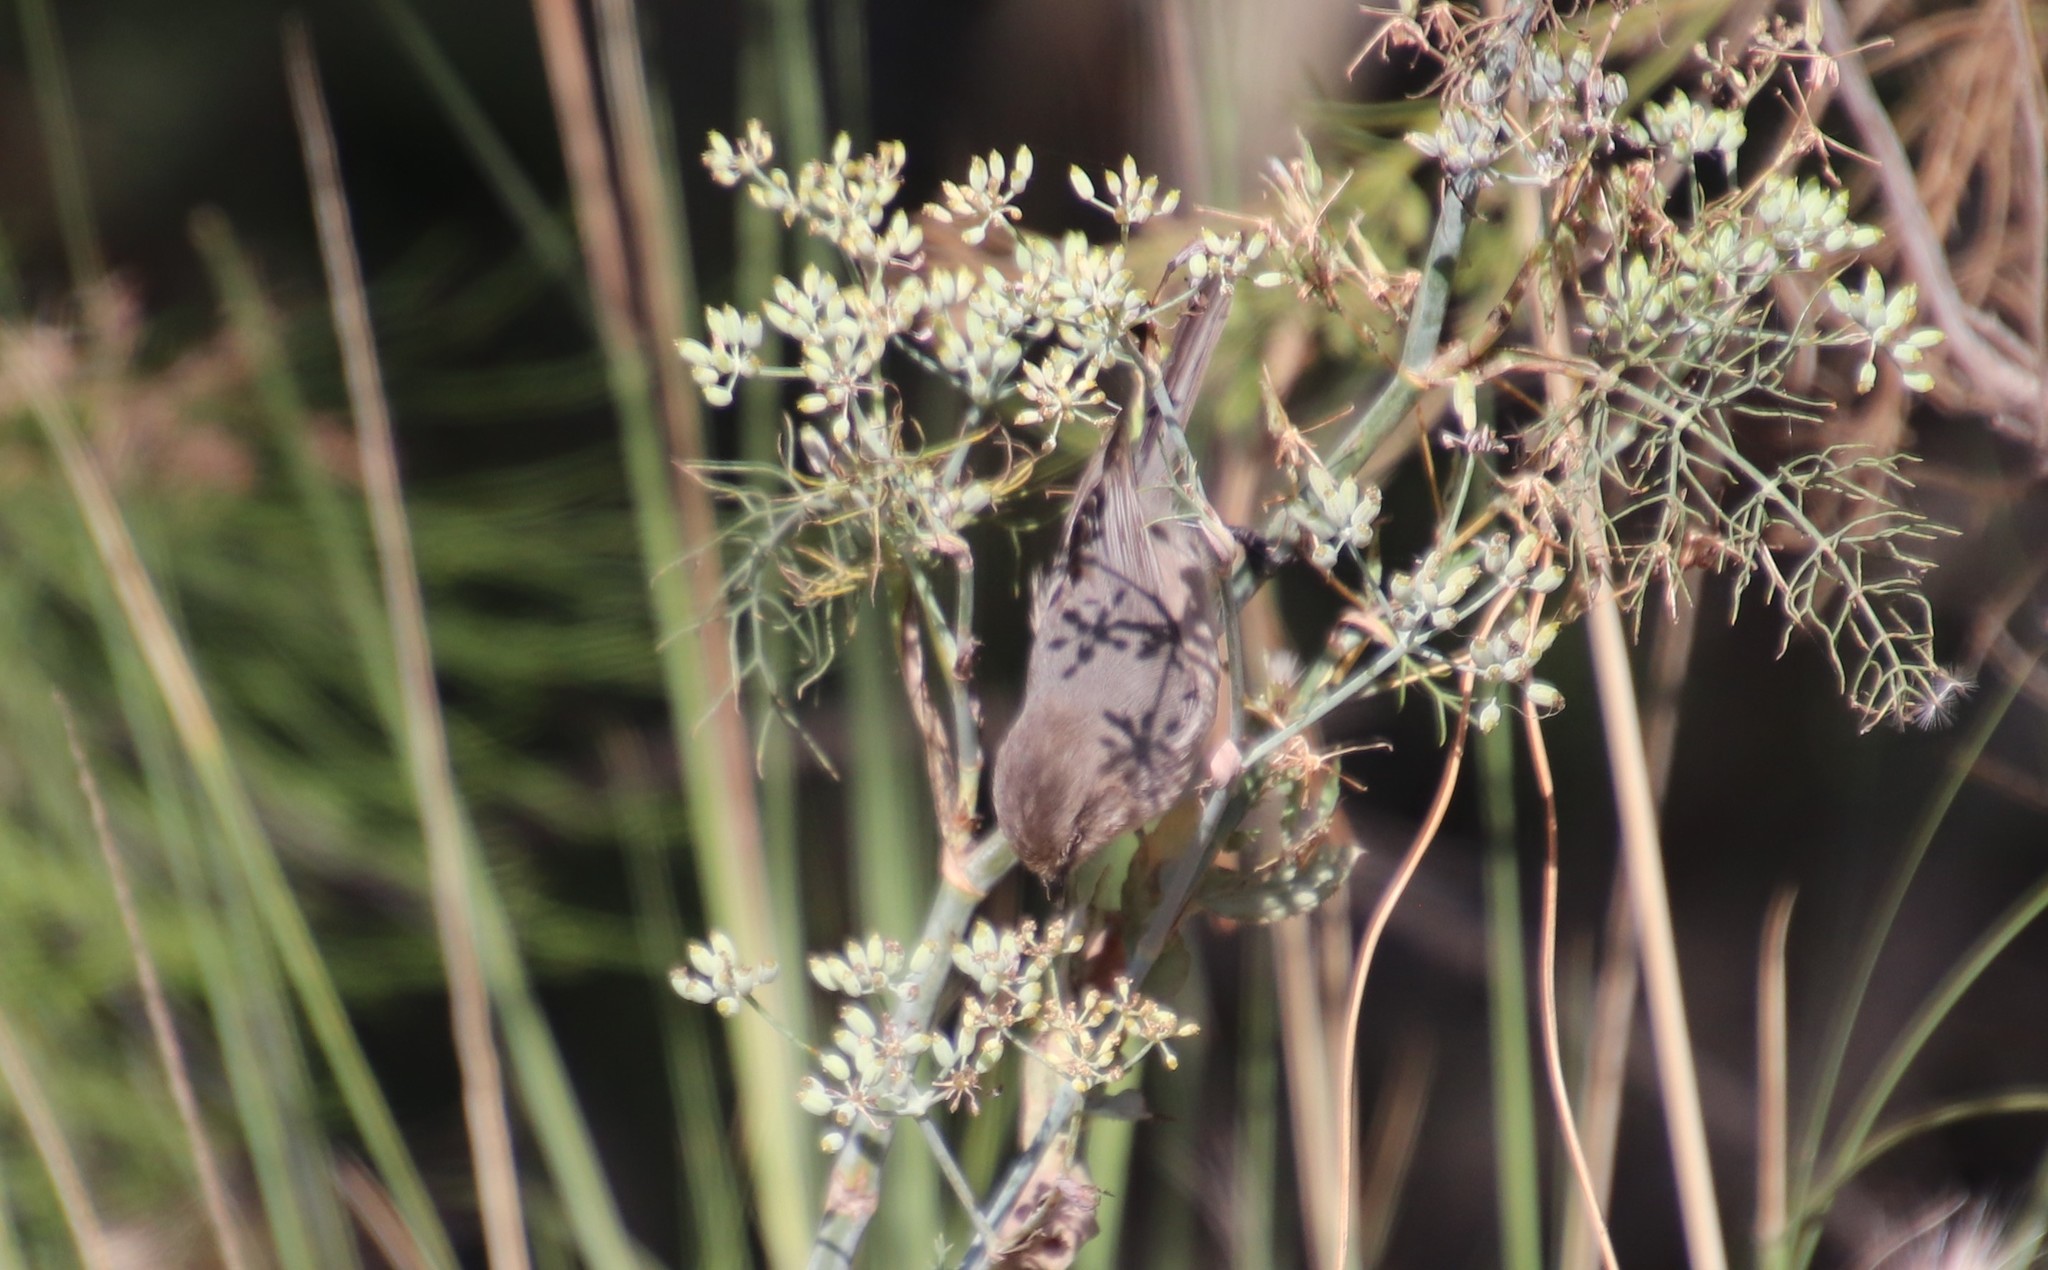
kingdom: Animalia
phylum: Chordata
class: Aves
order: Passeriformes
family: Aegithalidae
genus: Psaltriparus
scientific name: Psaltriparus minimus
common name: American bushtit
